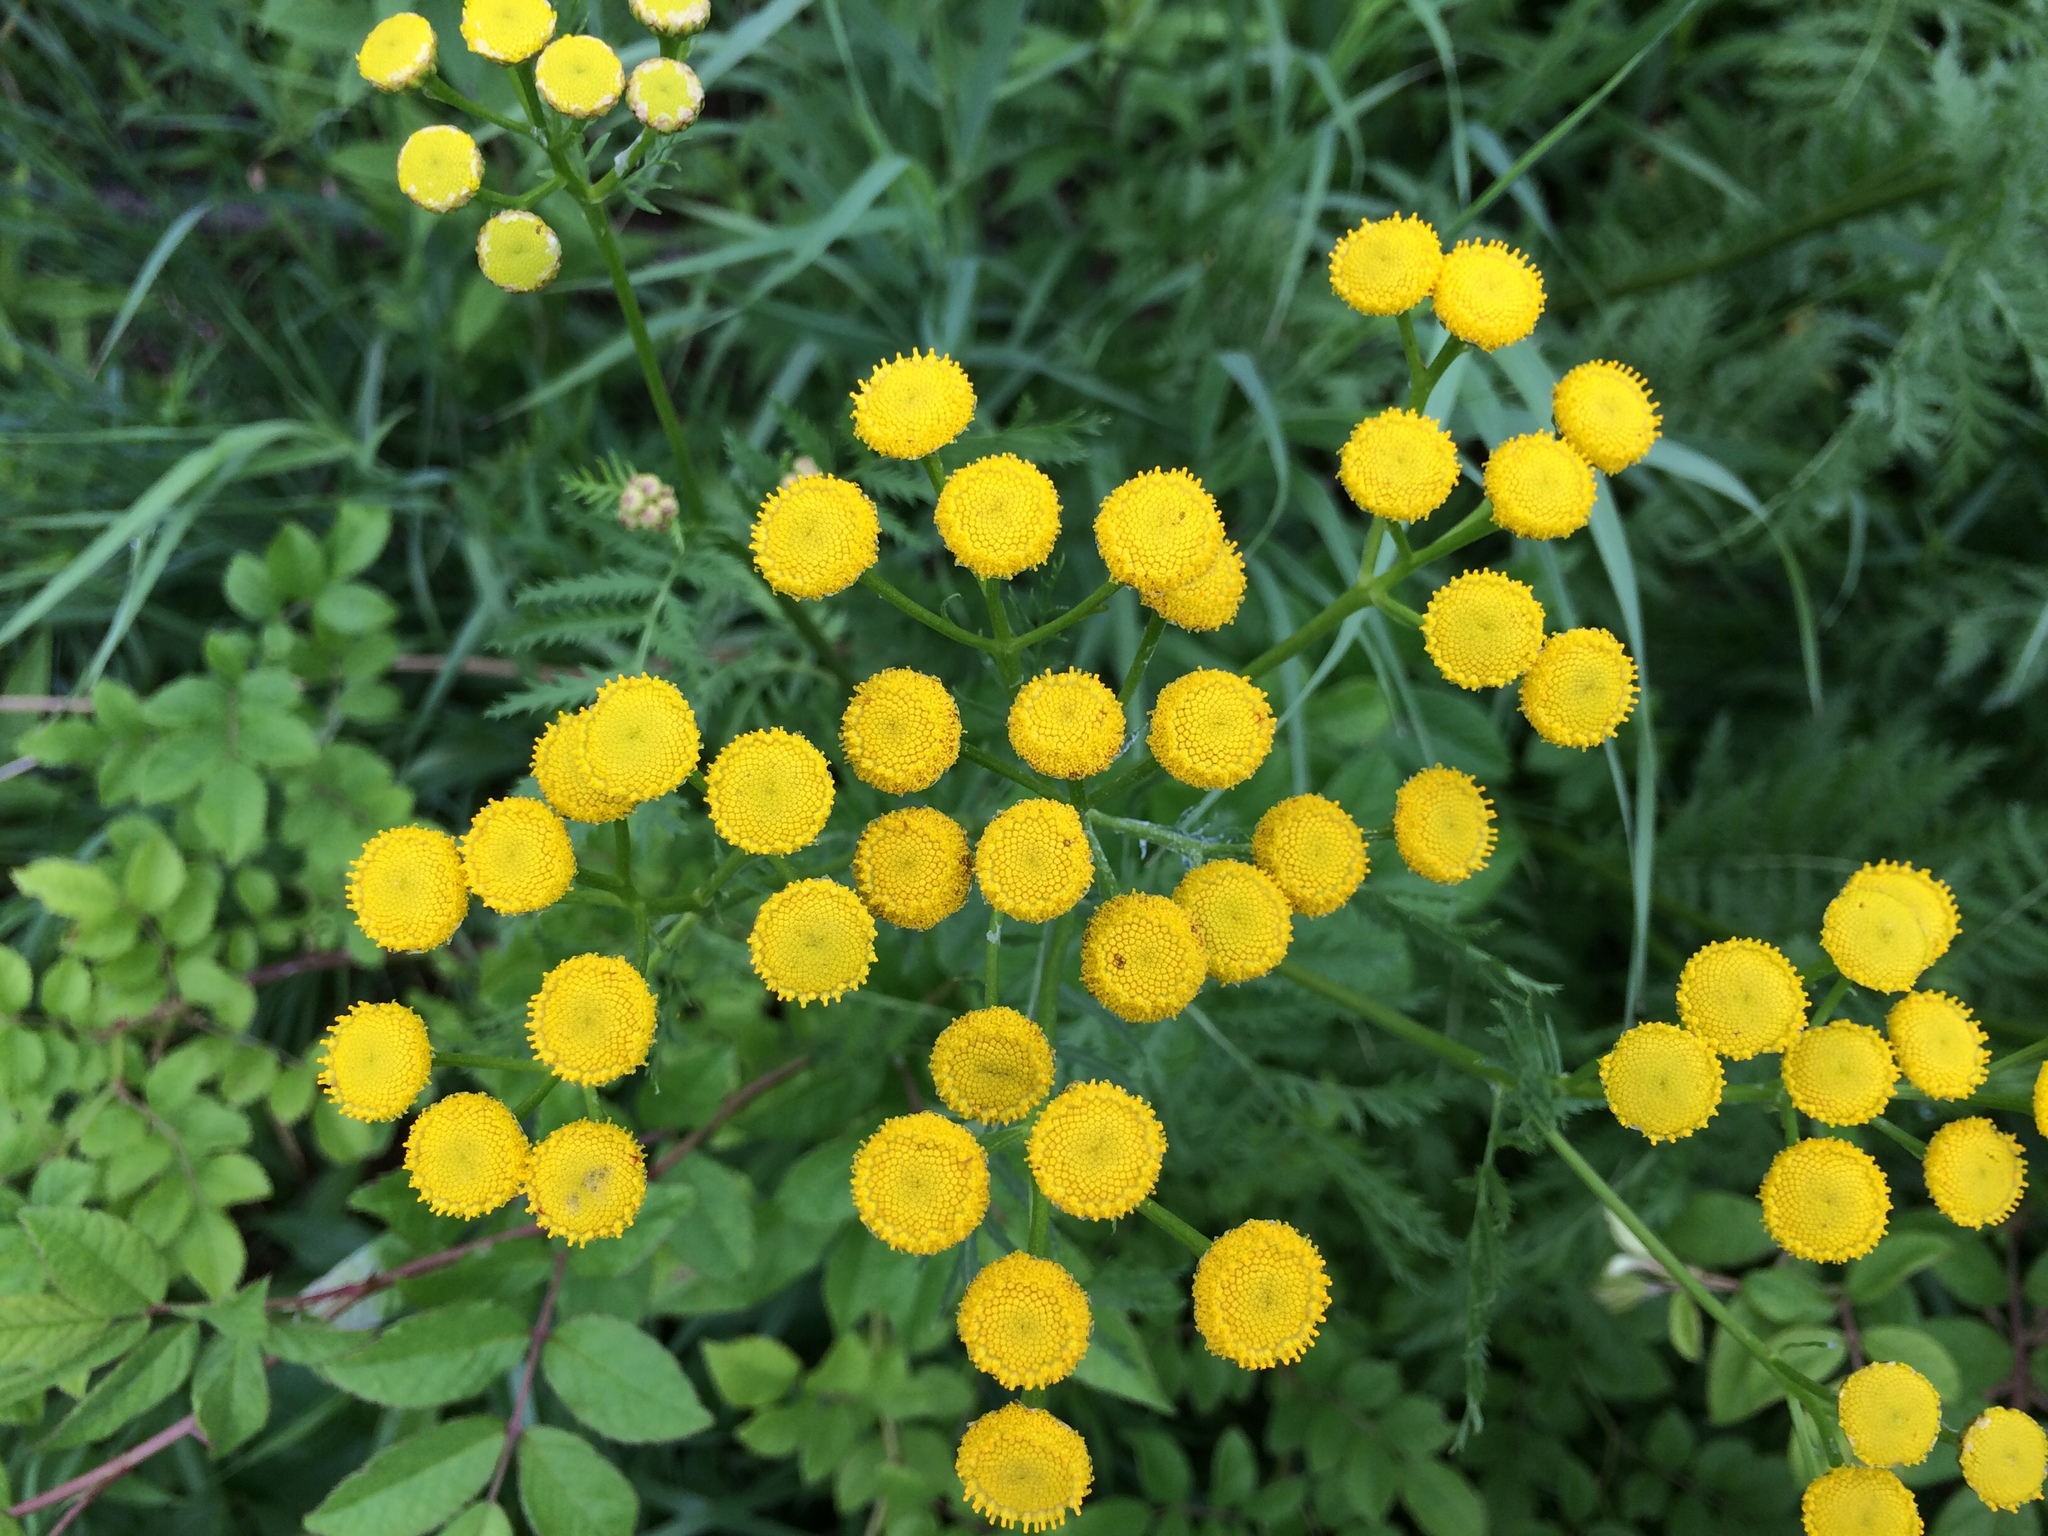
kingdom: Plantae
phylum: Tracheophyta
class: Magnoliopsida
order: Asterales
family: Asteraceae
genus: Tanacetum
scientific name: Tanacetum vulgare
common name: Common tansy
